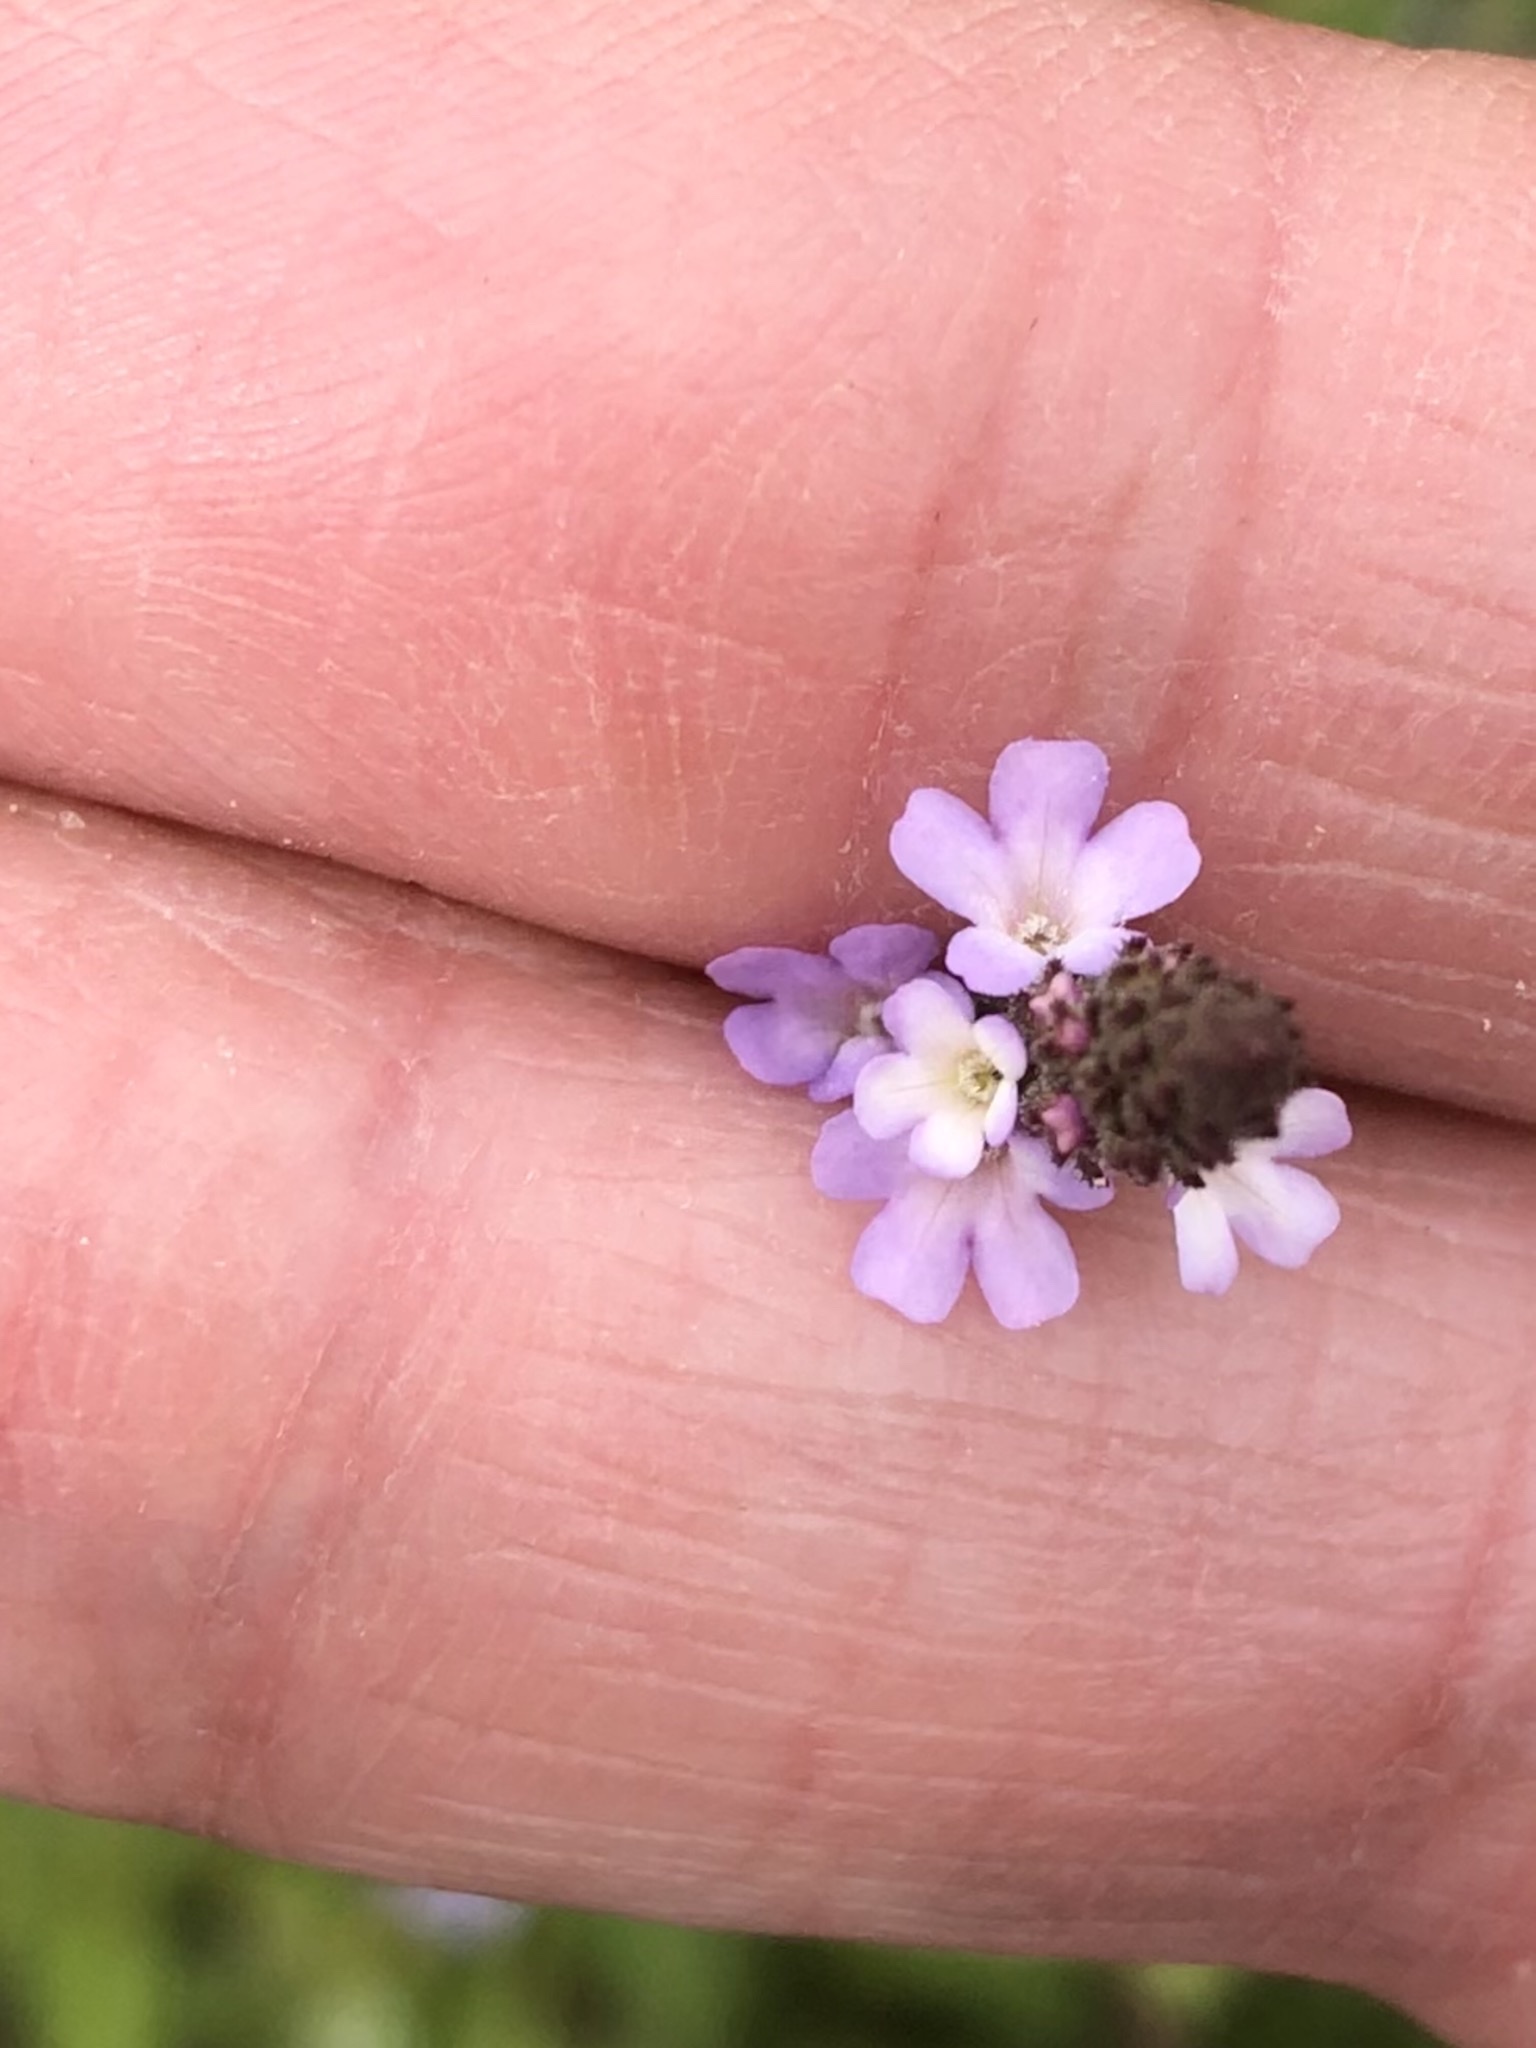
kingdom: Plantae
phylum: Tracheophyta
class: Magnoliopsida
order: Lamiales
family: Verbenaceae
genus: Verbena
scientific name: Verbena officinalis
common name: Vervain
